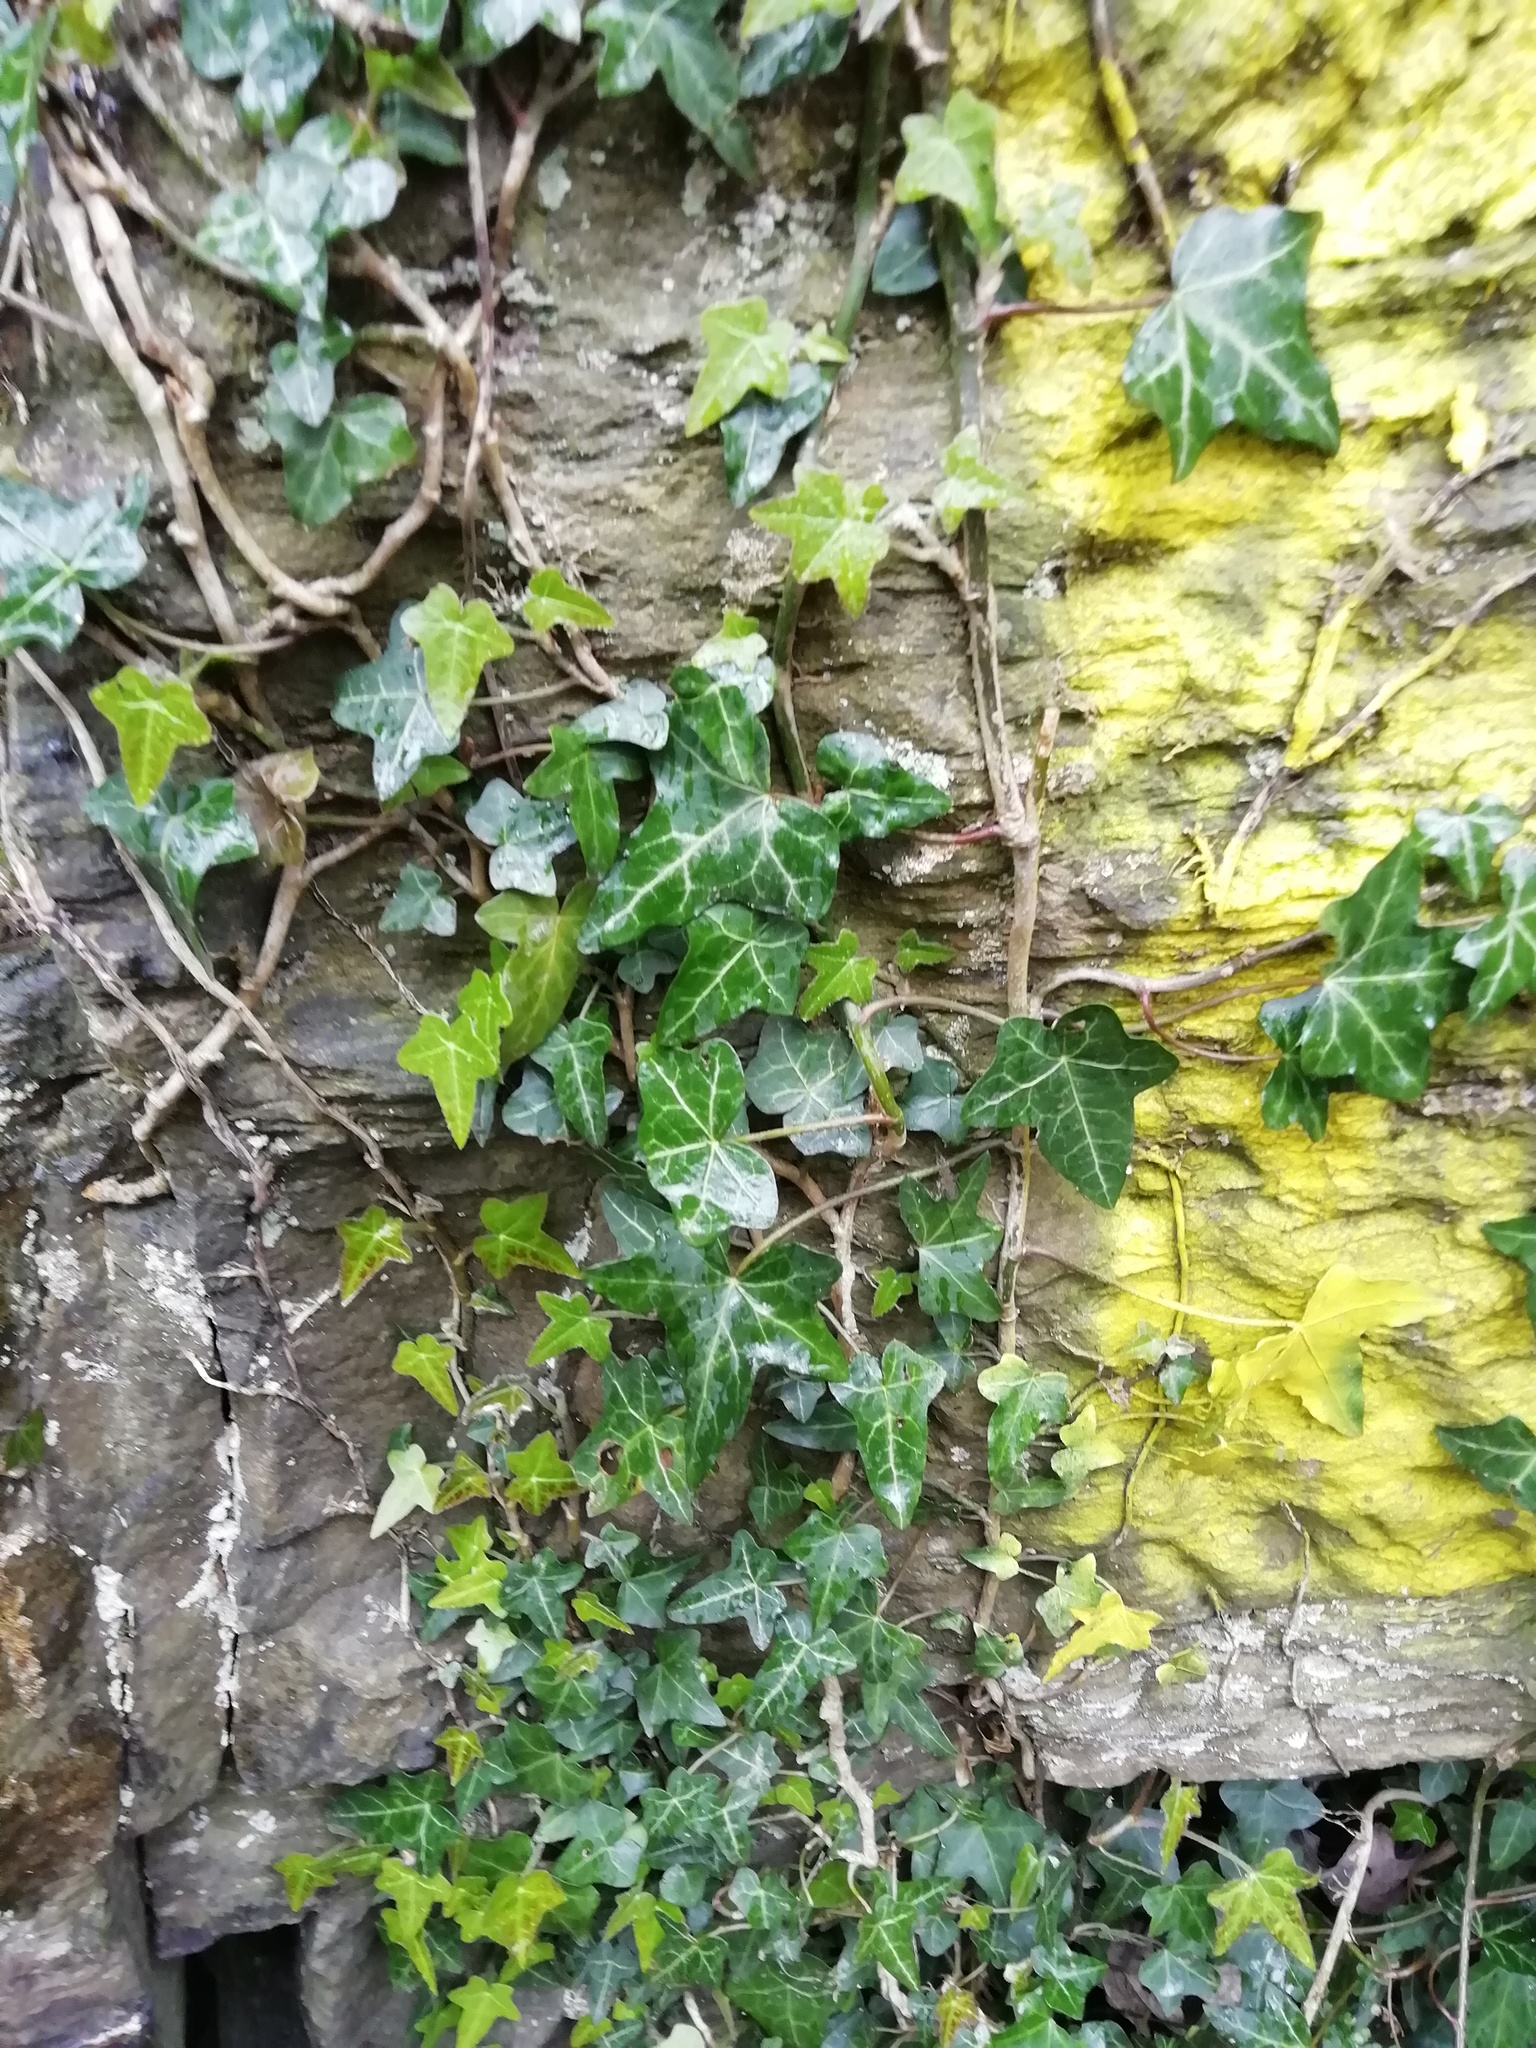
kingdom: Plantae
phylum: Tracheophyta
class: Magnoliopsida
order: Apiales
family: Araliaceae
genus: Hedera
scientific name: Hedera helix
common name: Ivy
